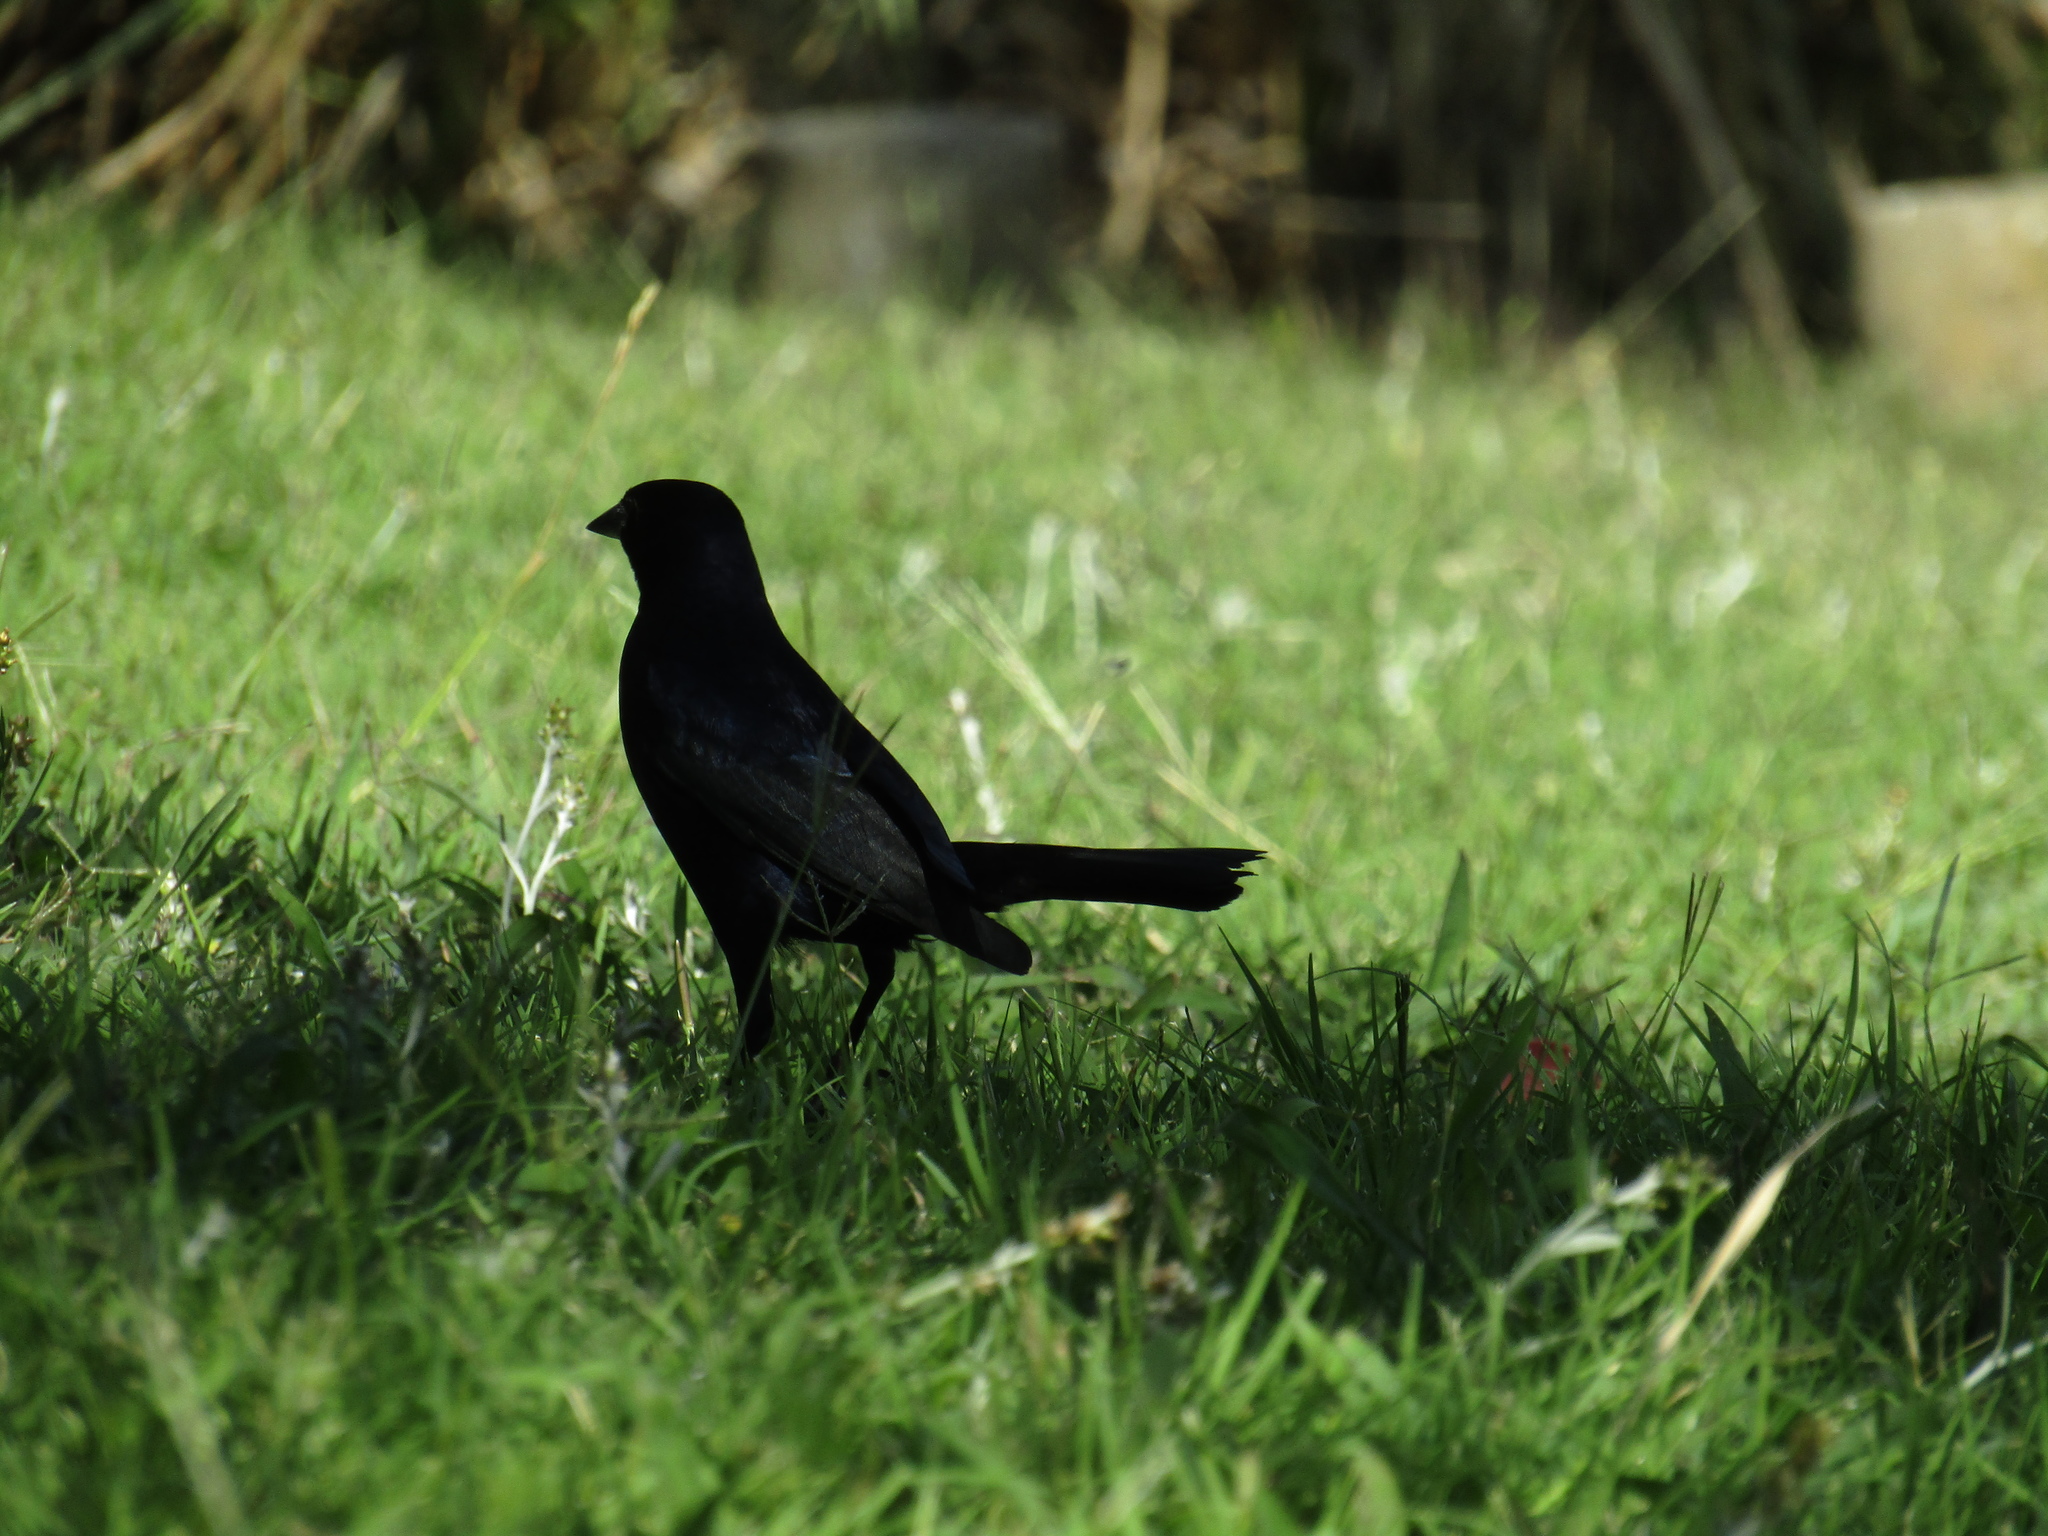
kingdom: Animalia
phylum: Chordata
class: Aves
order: Passeriformes
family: Icteridae
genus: Molothrus
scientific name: Molothrus bonariensis
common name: Shiny cowbird
